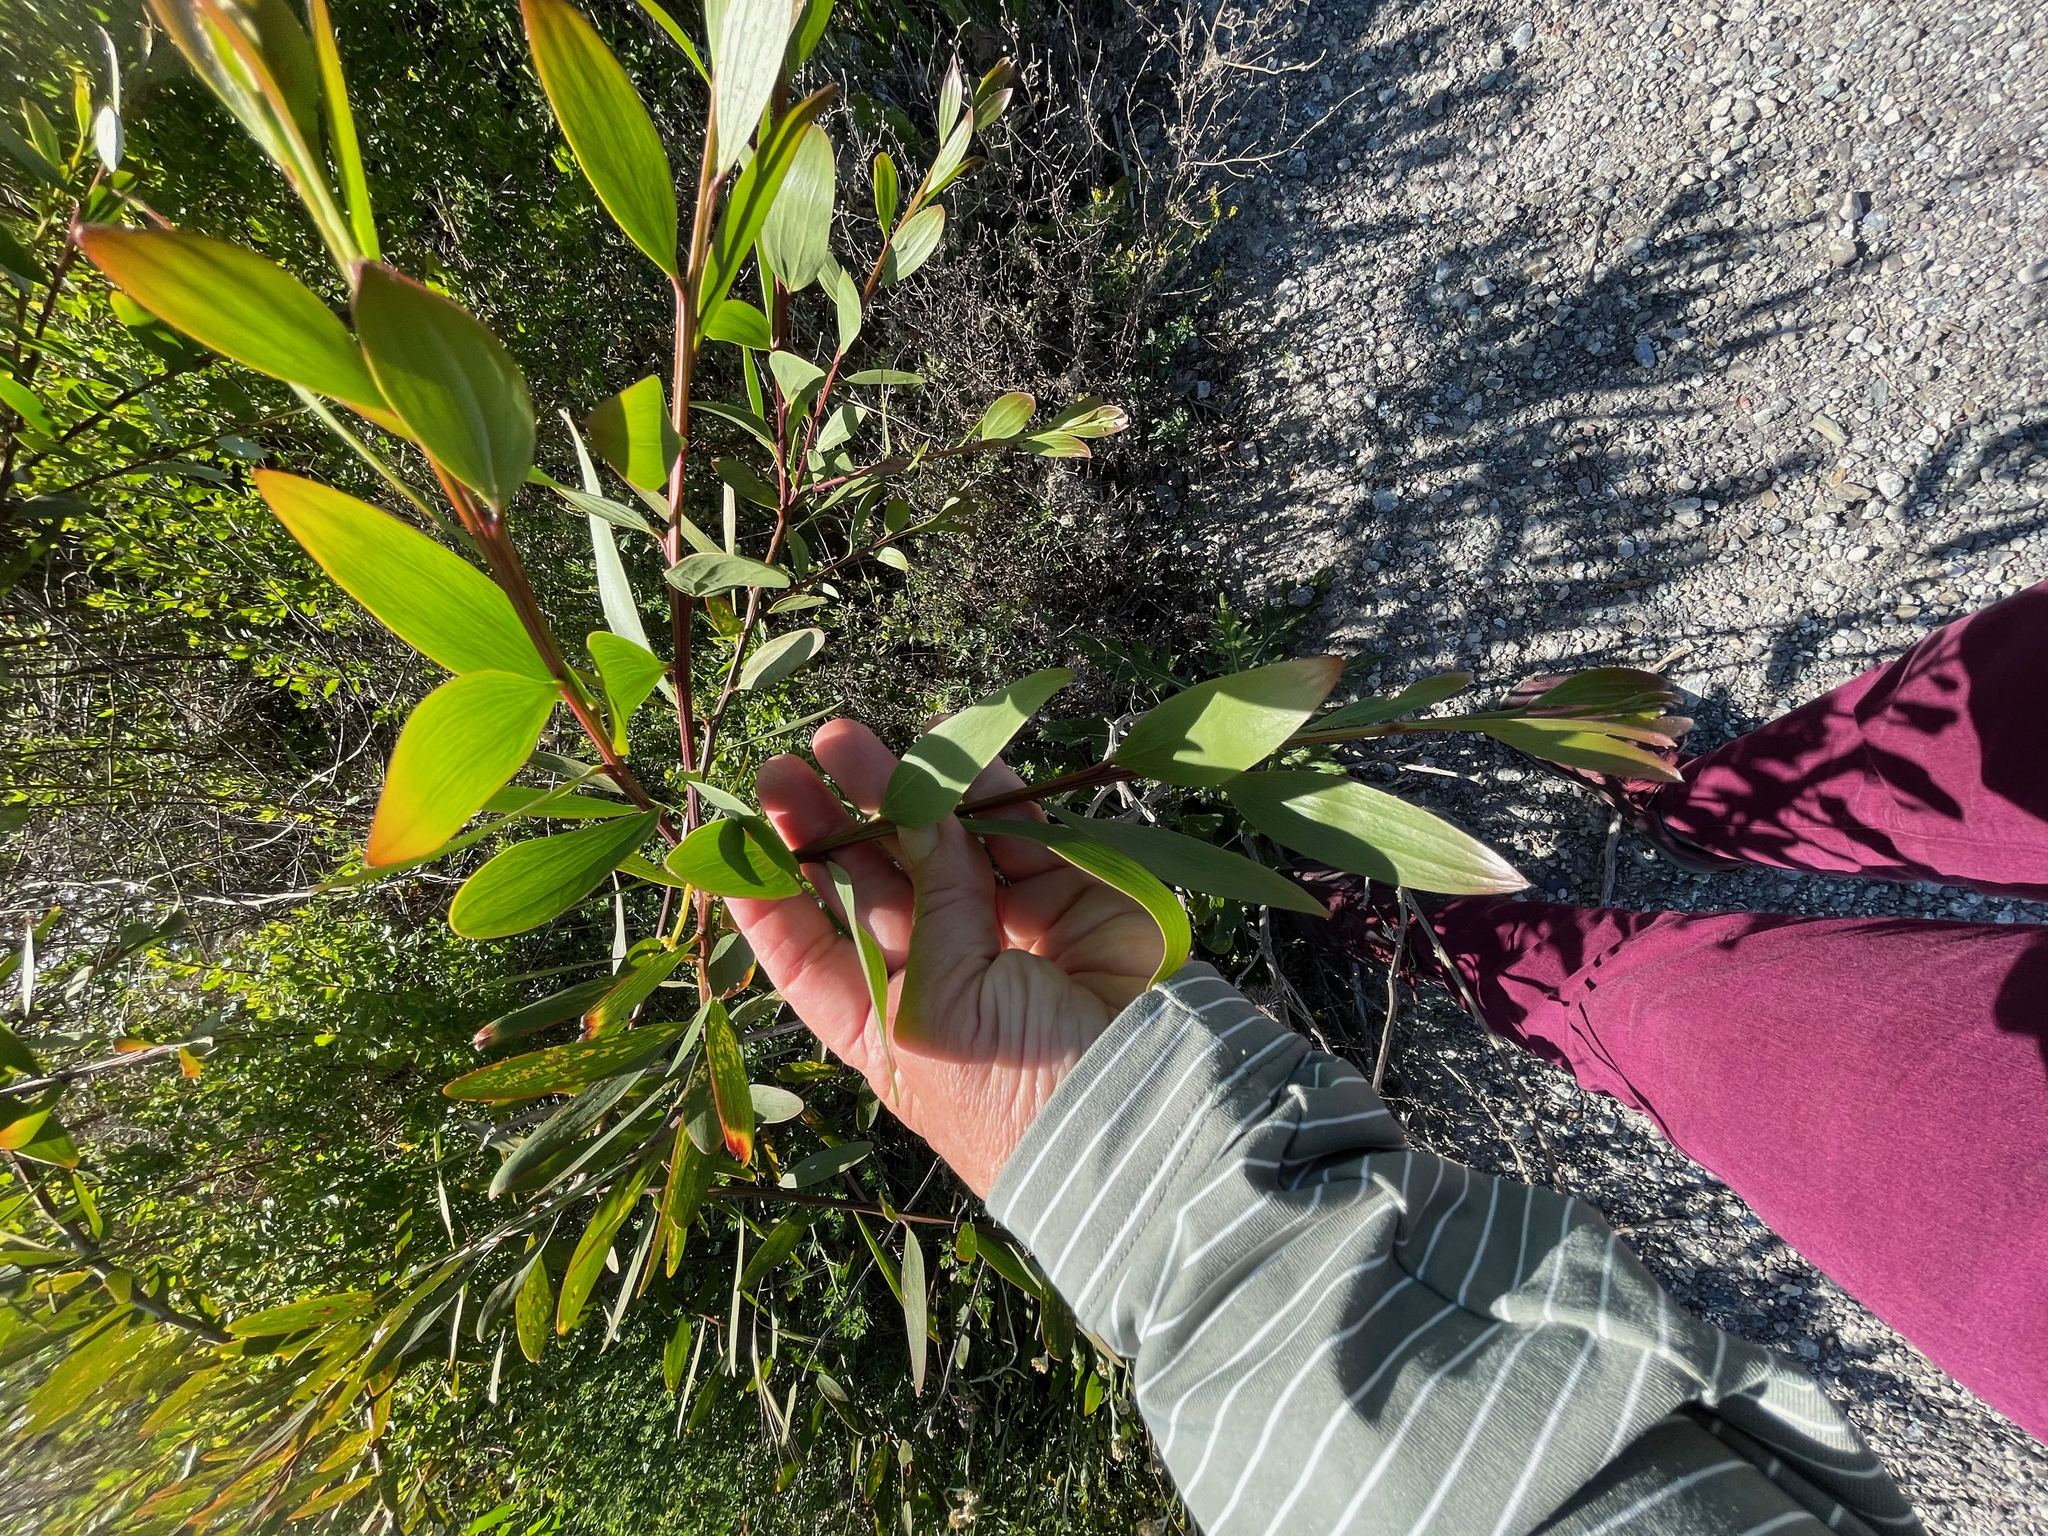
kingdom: Plantae
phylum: Tracheophyta
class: Magnoliopsida
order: Fabales
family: Fabaceae
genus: Acacia
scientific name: Acacia melanoxylon
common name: Blackwood
